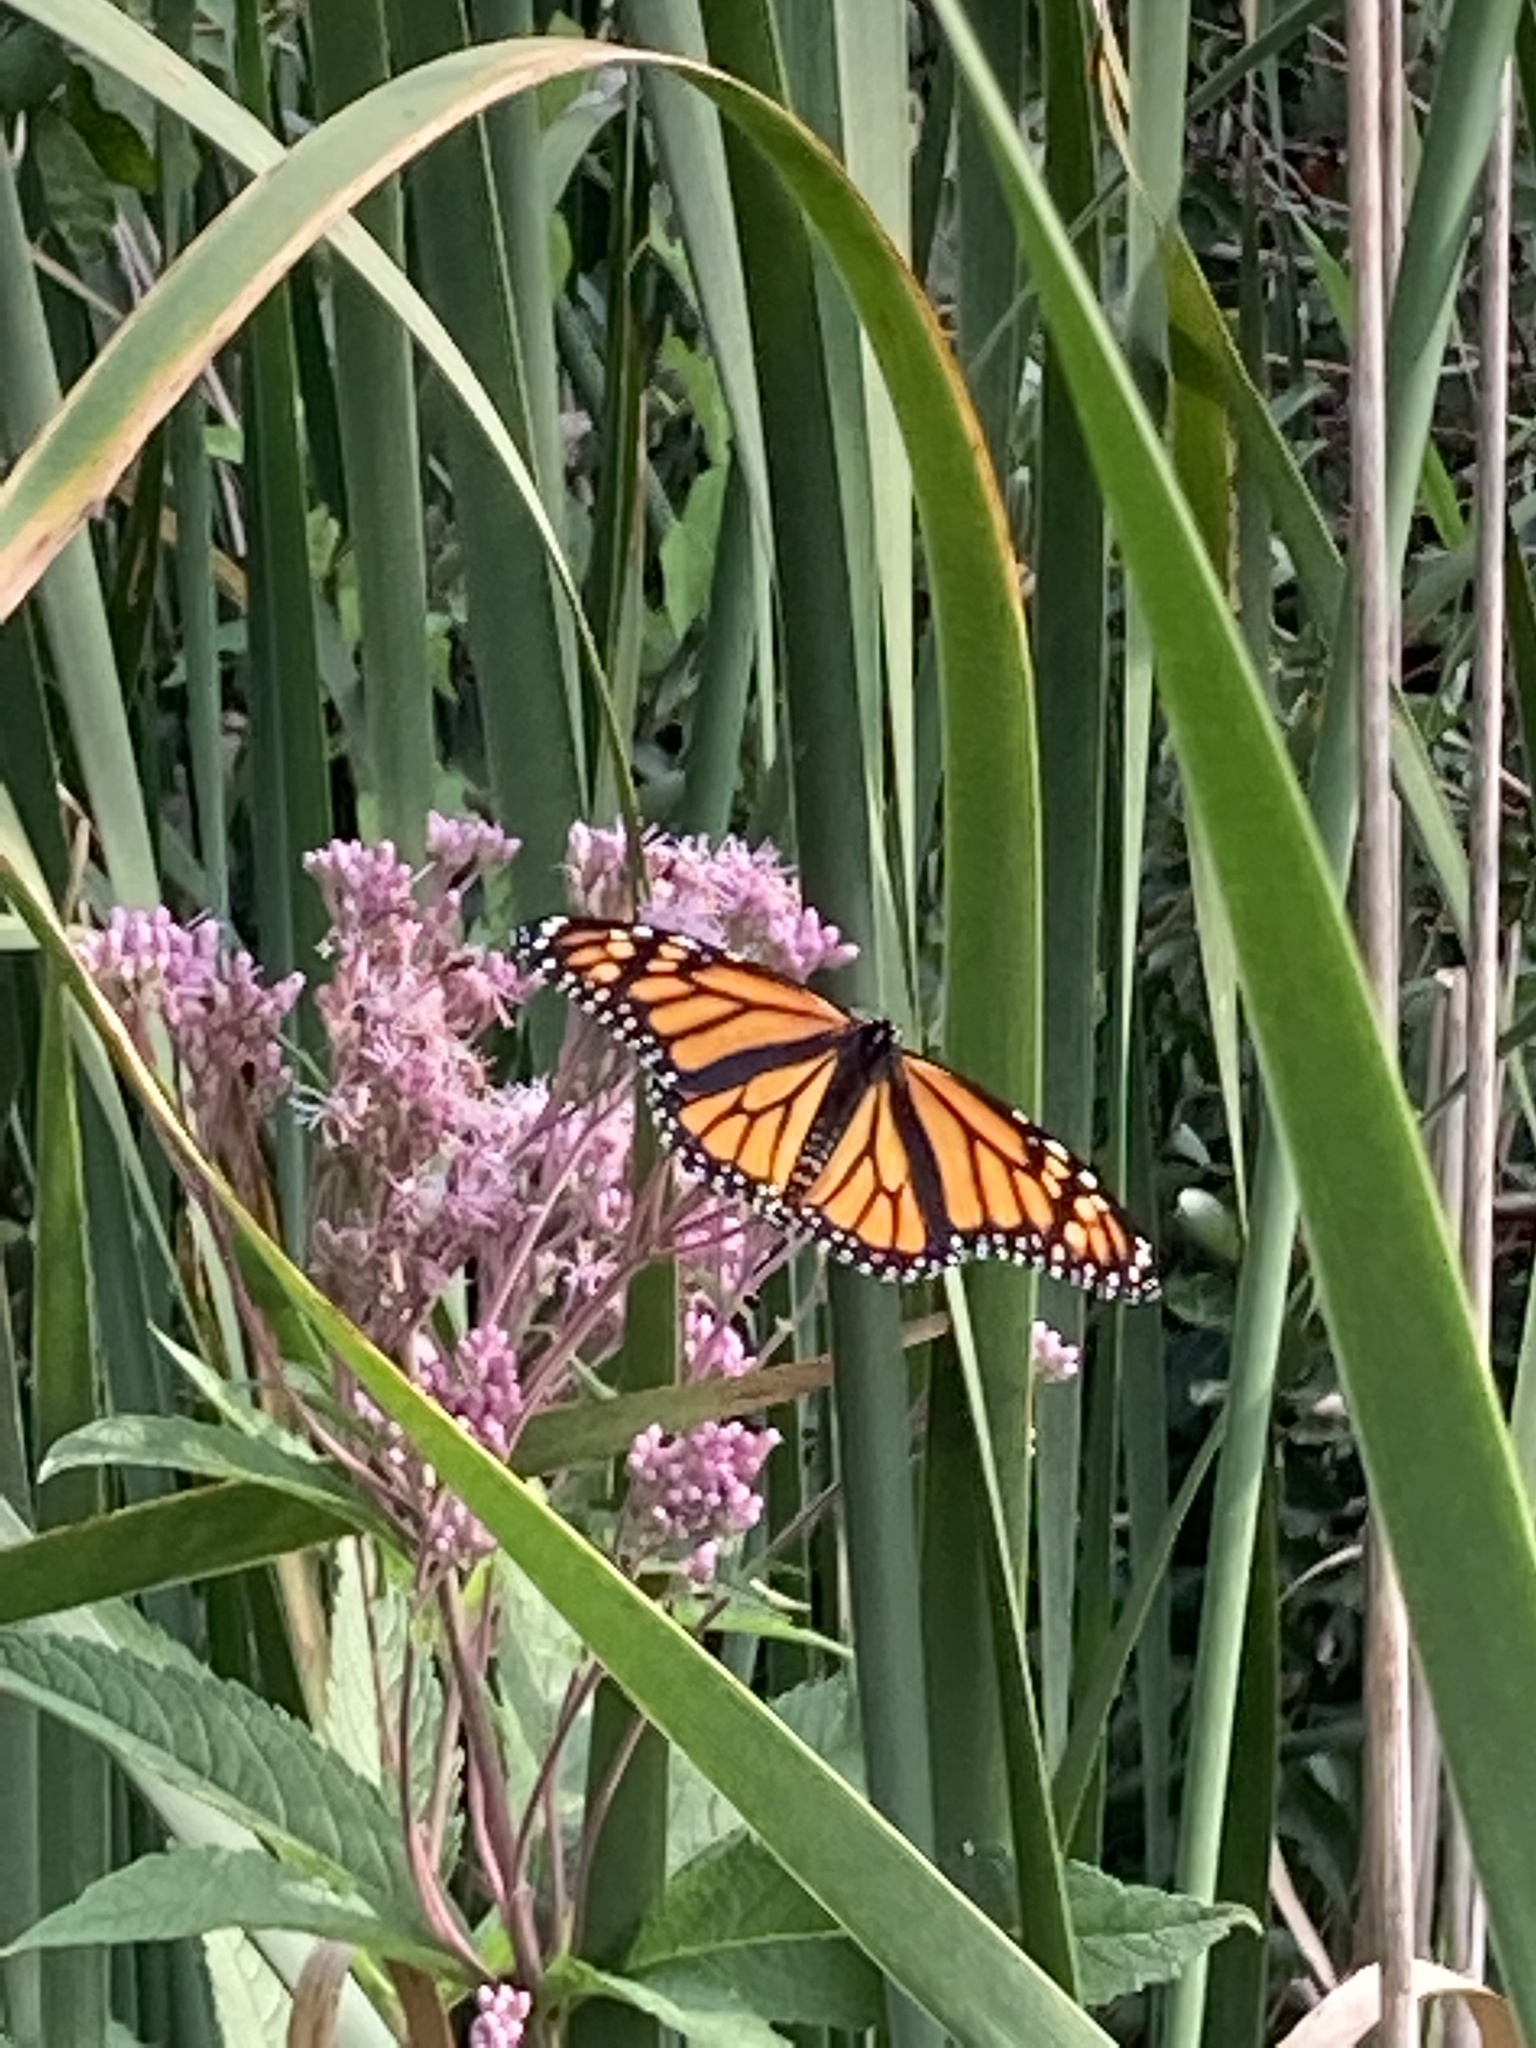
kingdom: Animalia
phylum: Arthropoda
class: Insecta
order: Lepidoptera
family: Nymphalidae
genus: Danaus
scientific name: Danaus plexippus
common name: Monarch
